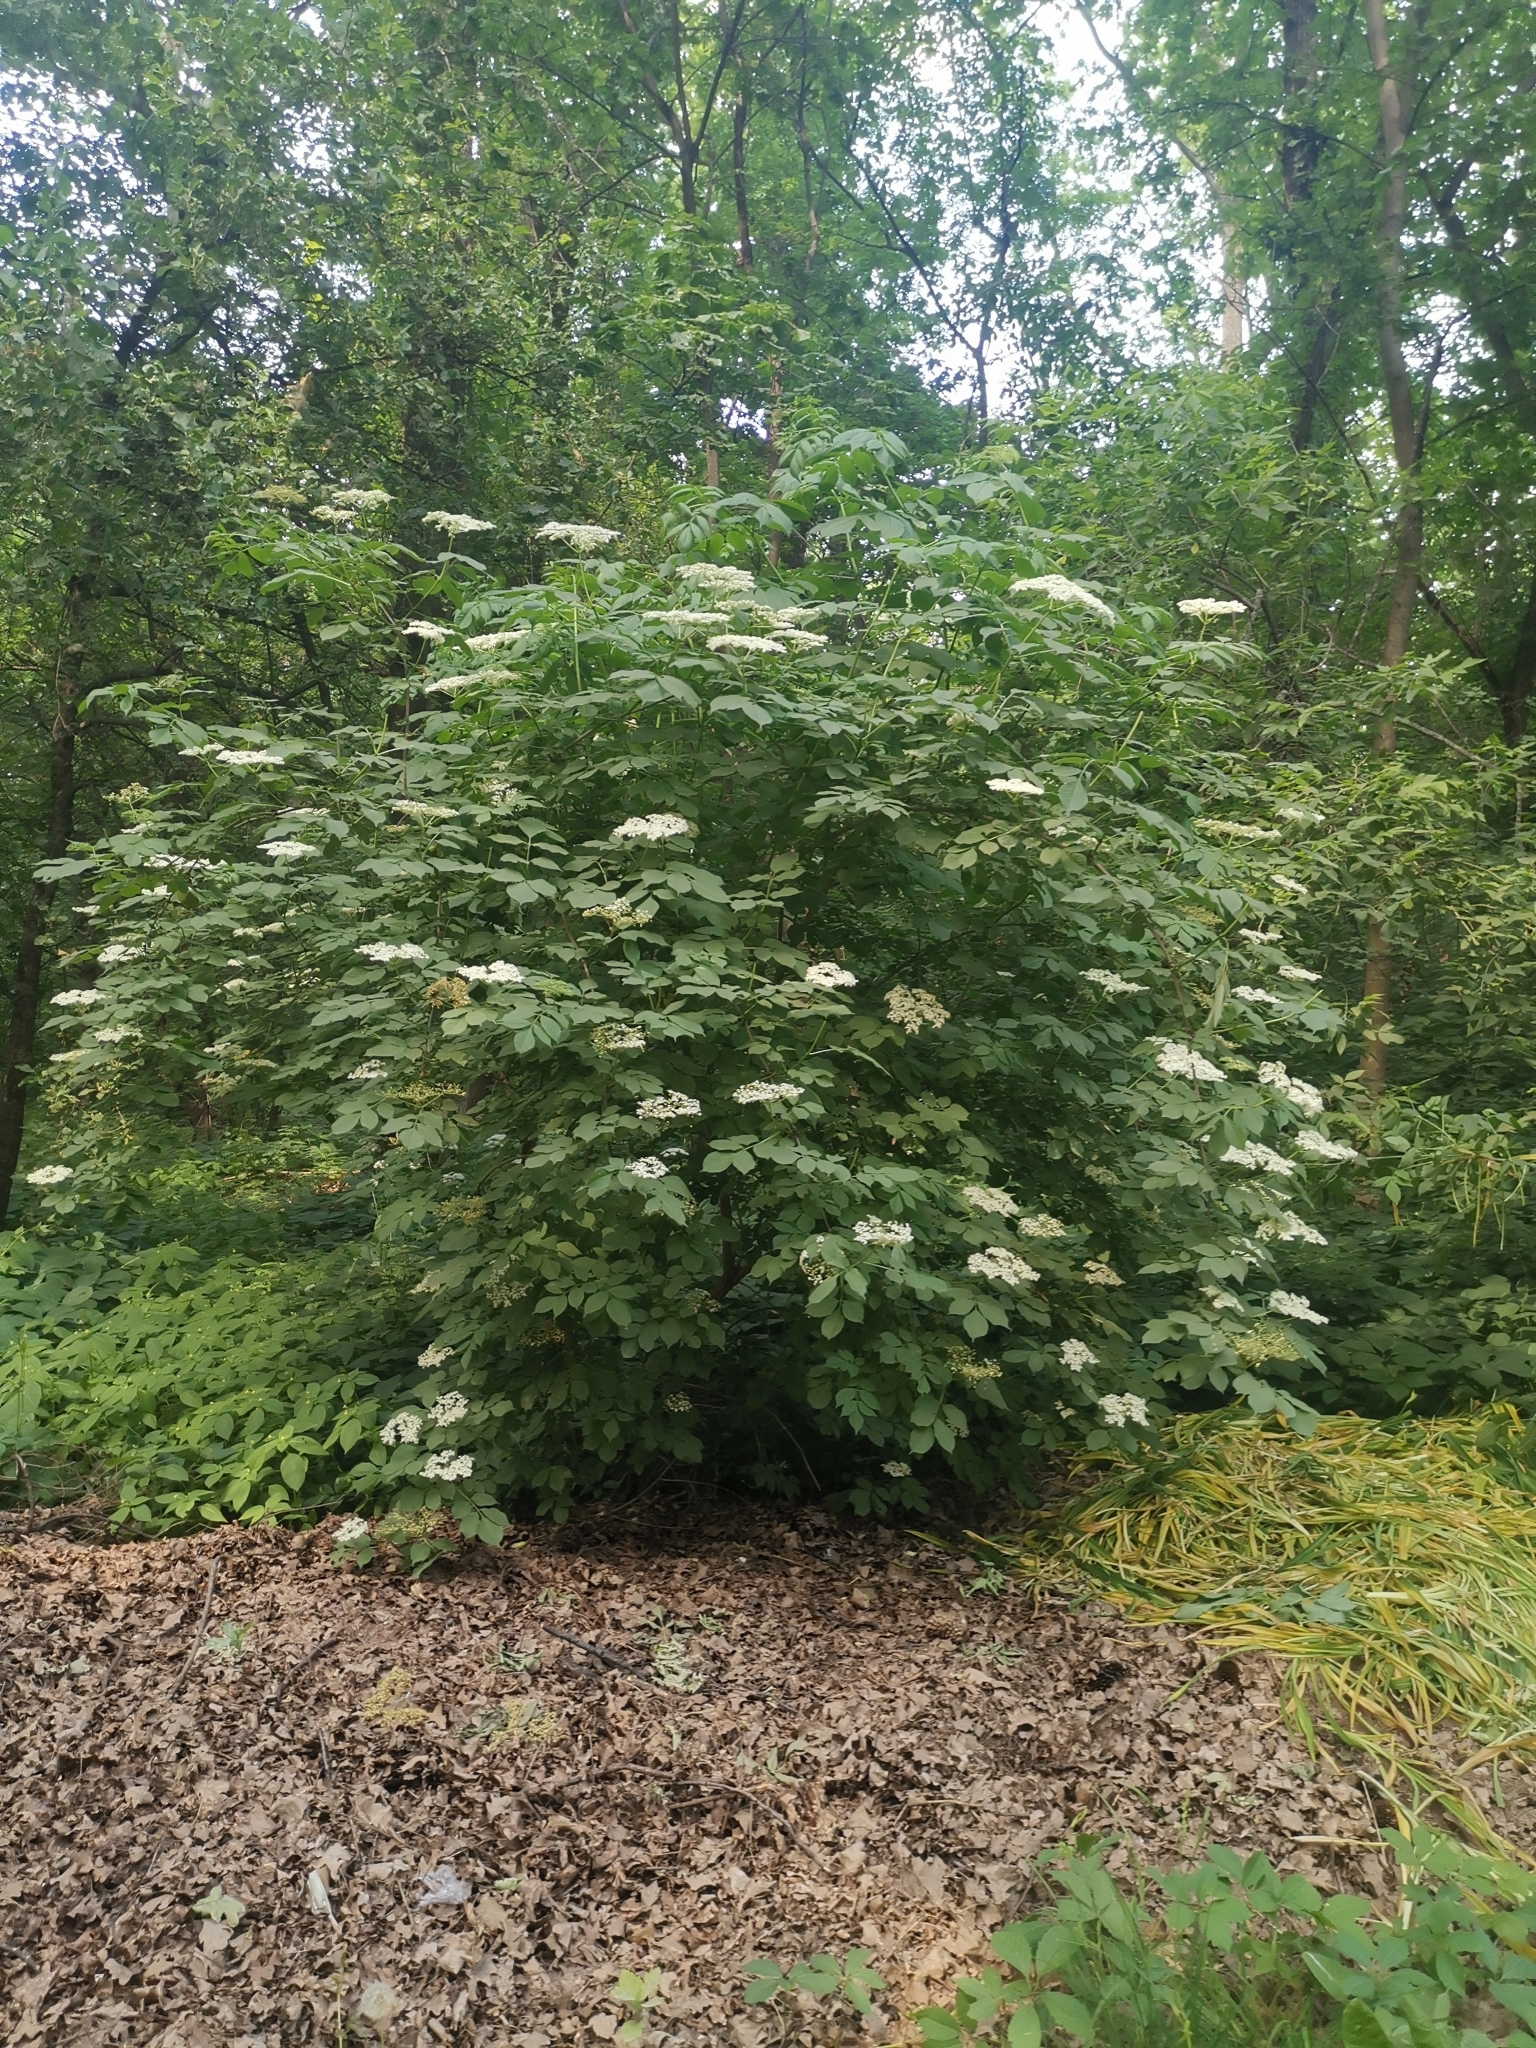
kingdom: Plantae
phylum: Tracheophyta
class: Magnoliopsida
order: Dipsacales
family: Viburnaceae
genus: Sambucus
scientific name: Sambucus nigra
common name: Elder
